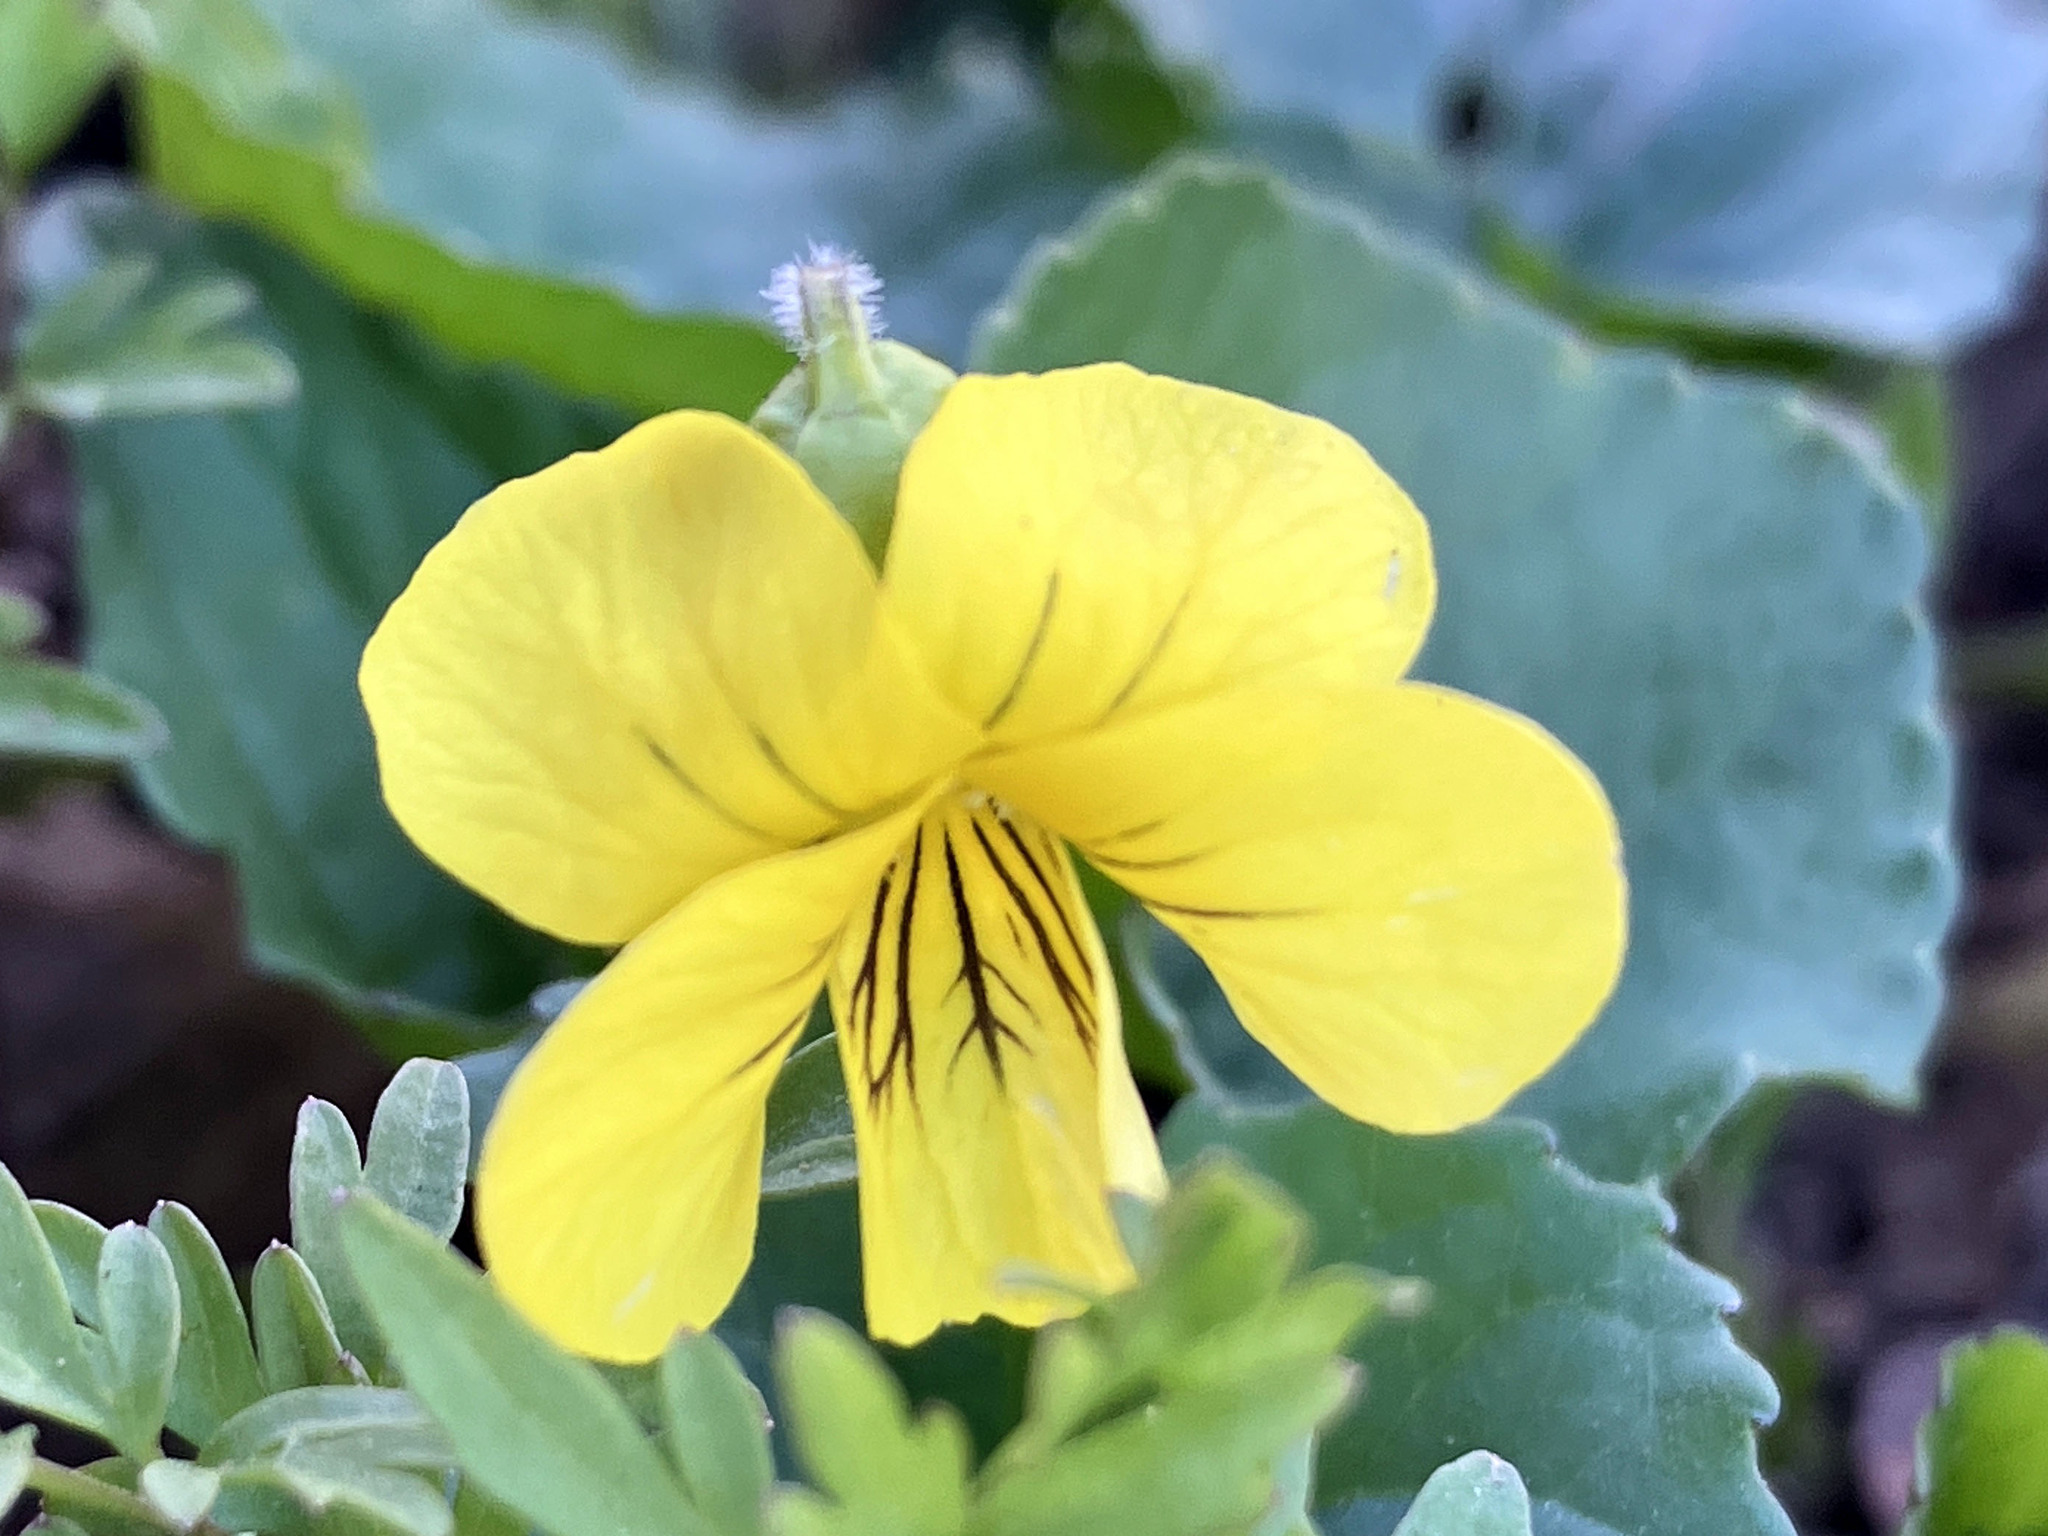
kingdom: Plantae
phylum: Tracheophyta
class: Magnoliopsida
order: Malpighiales
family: Violaceae
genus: Viola
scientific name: Viola eriocarpa
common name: Smooth yellow violet
